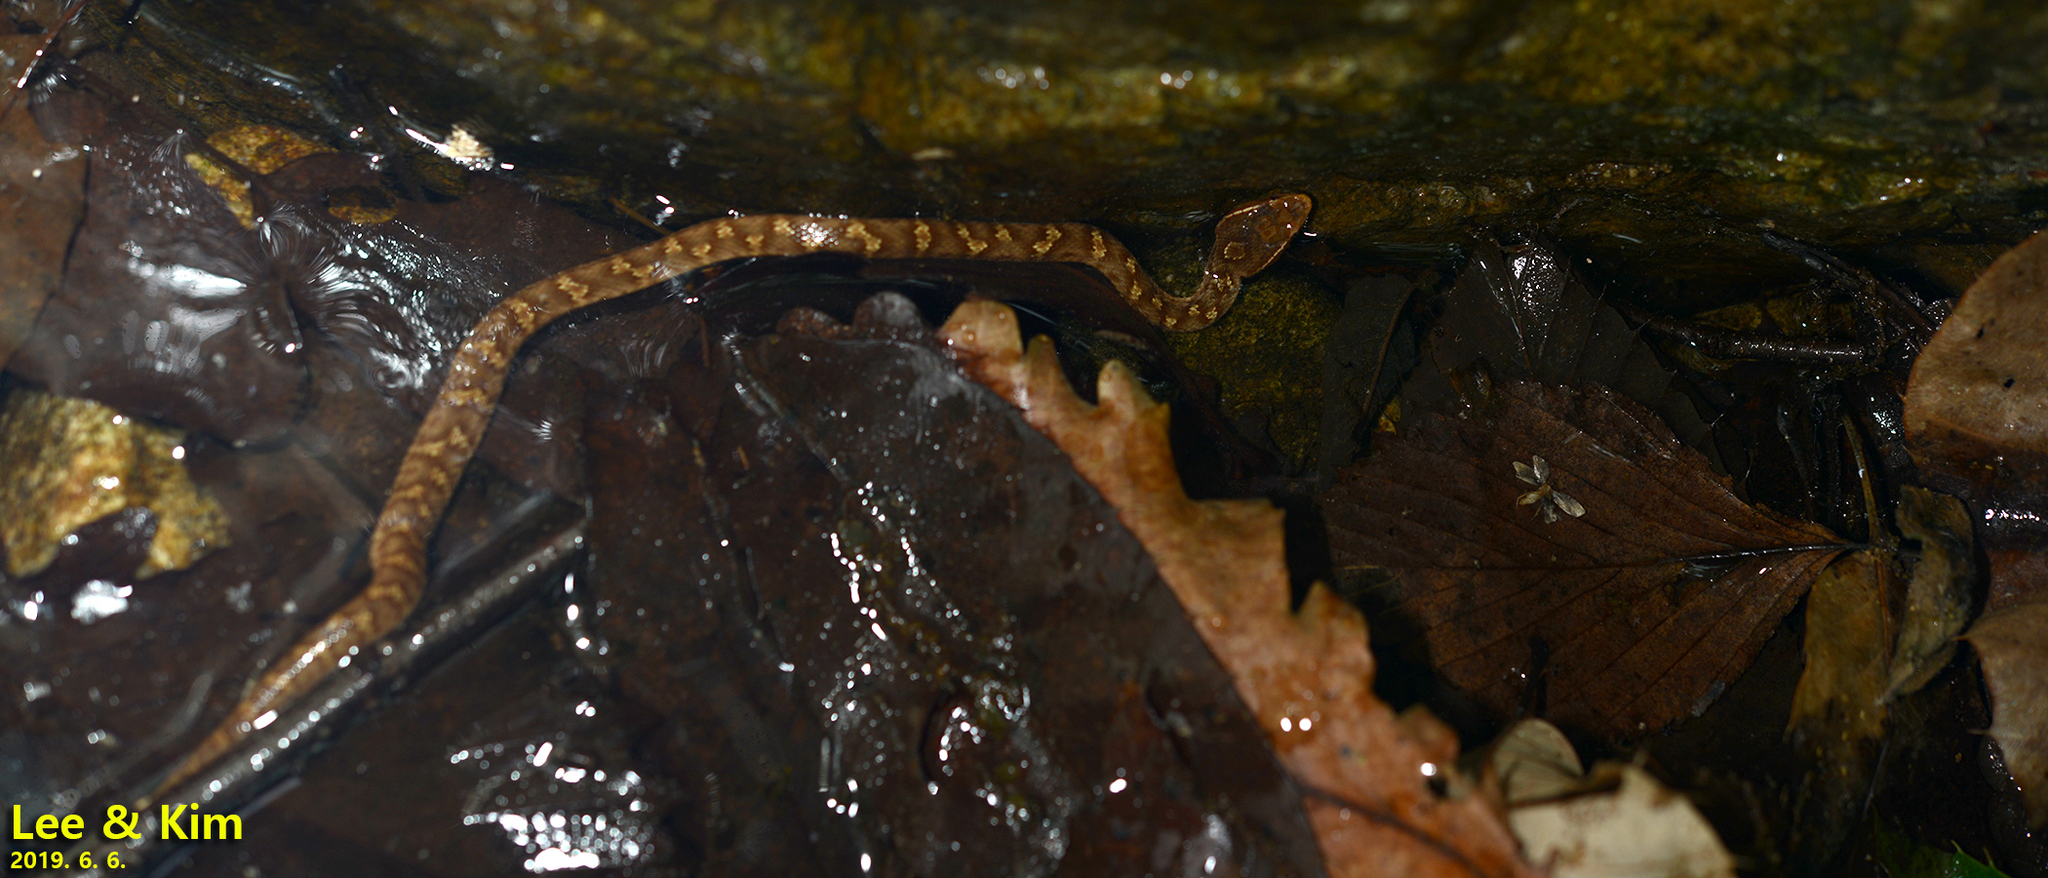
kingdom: Animalia
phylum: Chordata
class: Squamata
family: Viperidae
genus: Gloydius
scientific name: Gloydius ussuriensis
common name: Ussuri mamushi
